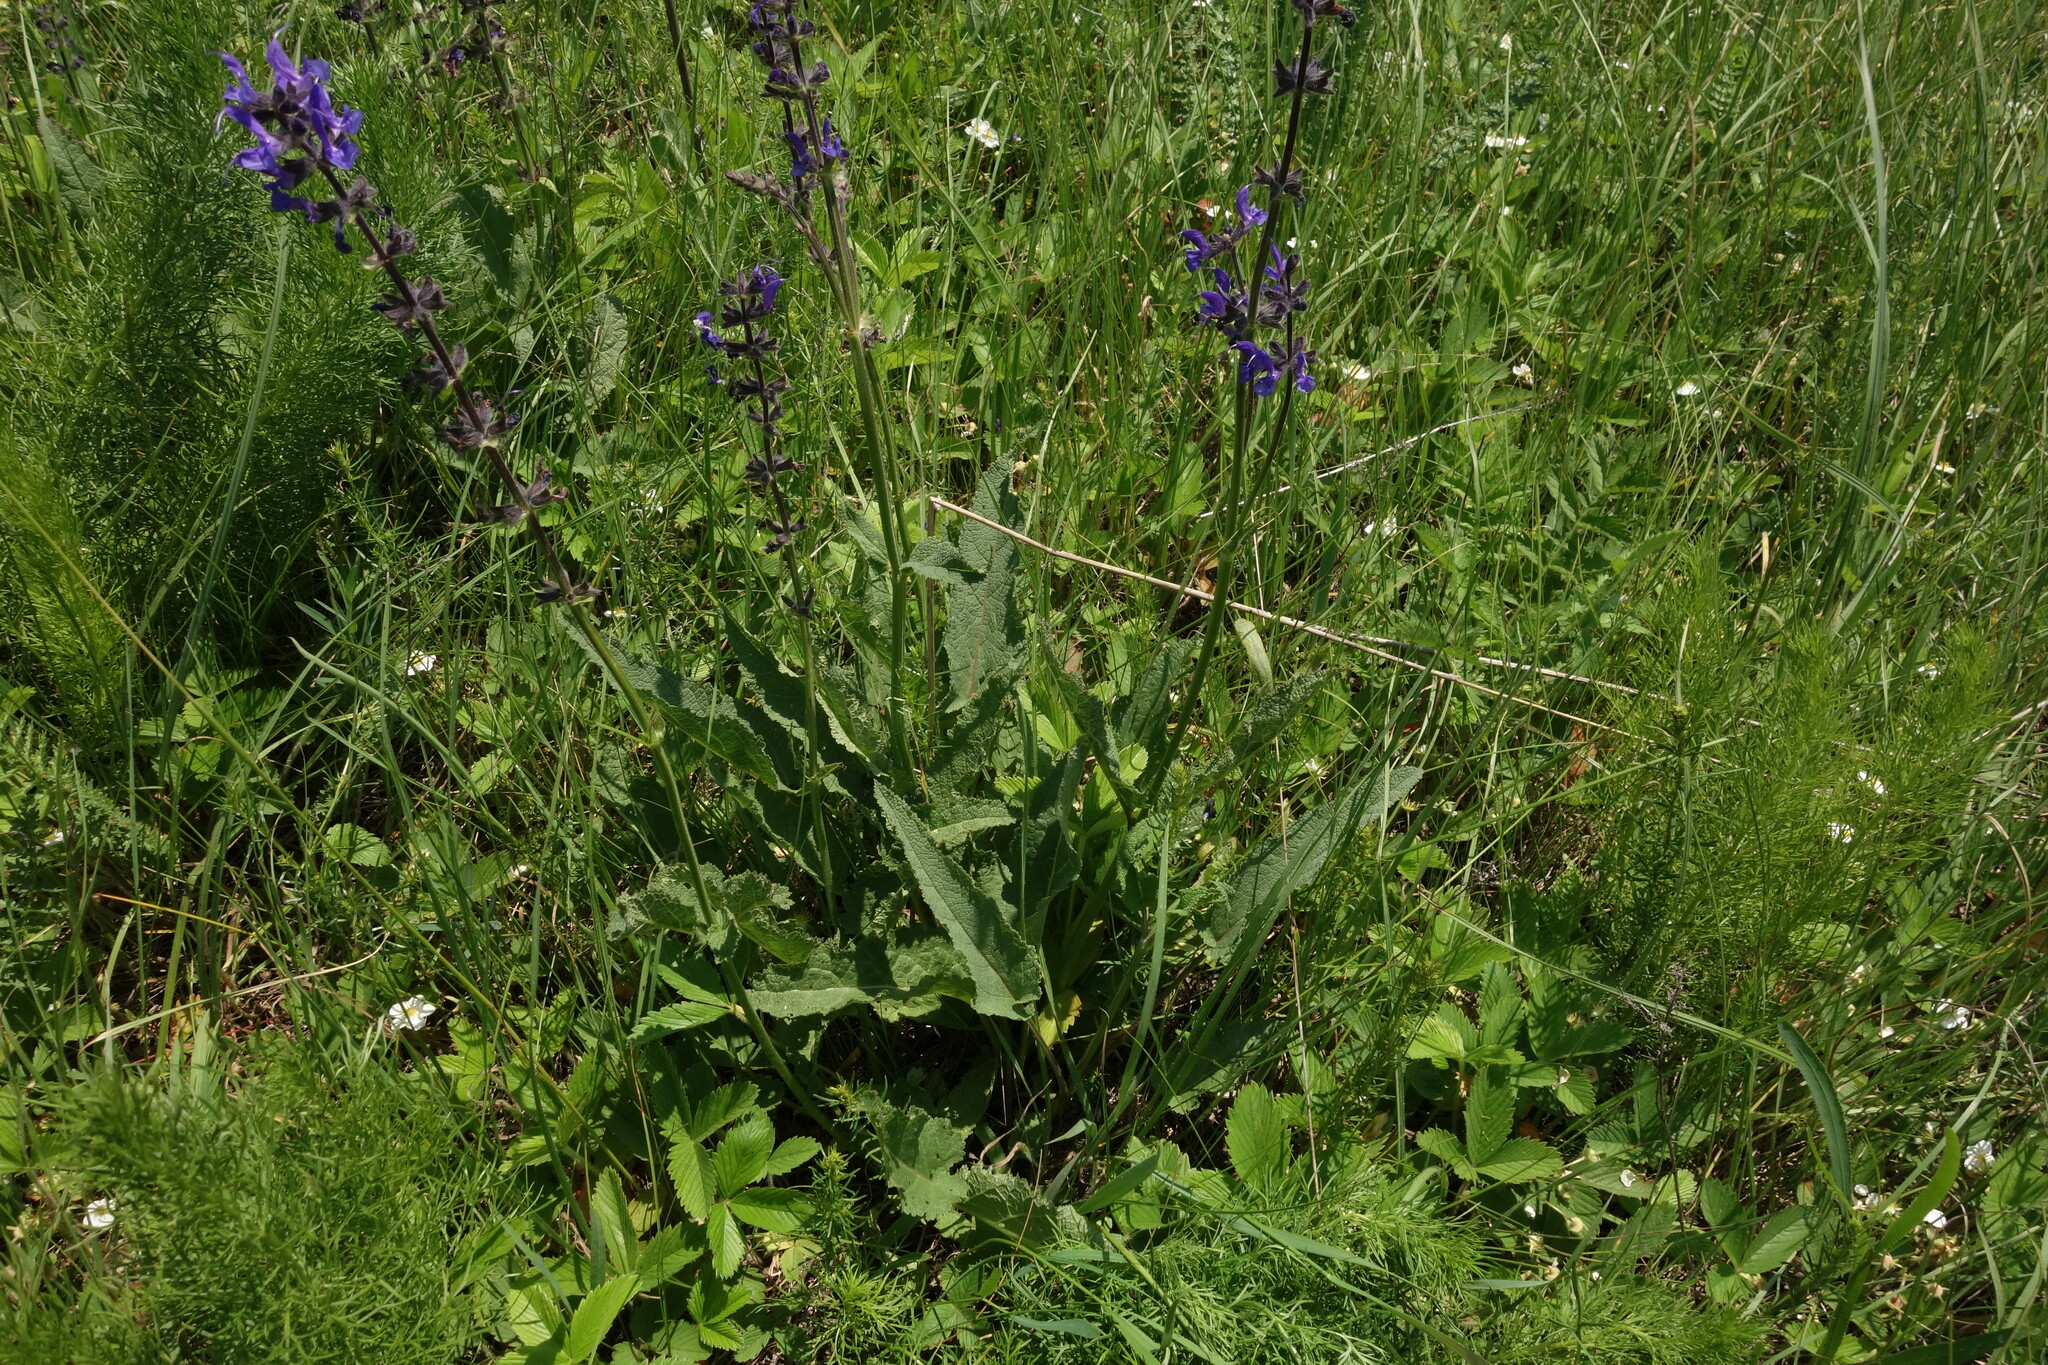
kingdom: Plantae
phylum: Tracheophyta
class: Magnoliopsida
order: Lamiales
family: Lamiaceae
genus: Salvia
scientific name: Salvia dumetorum
